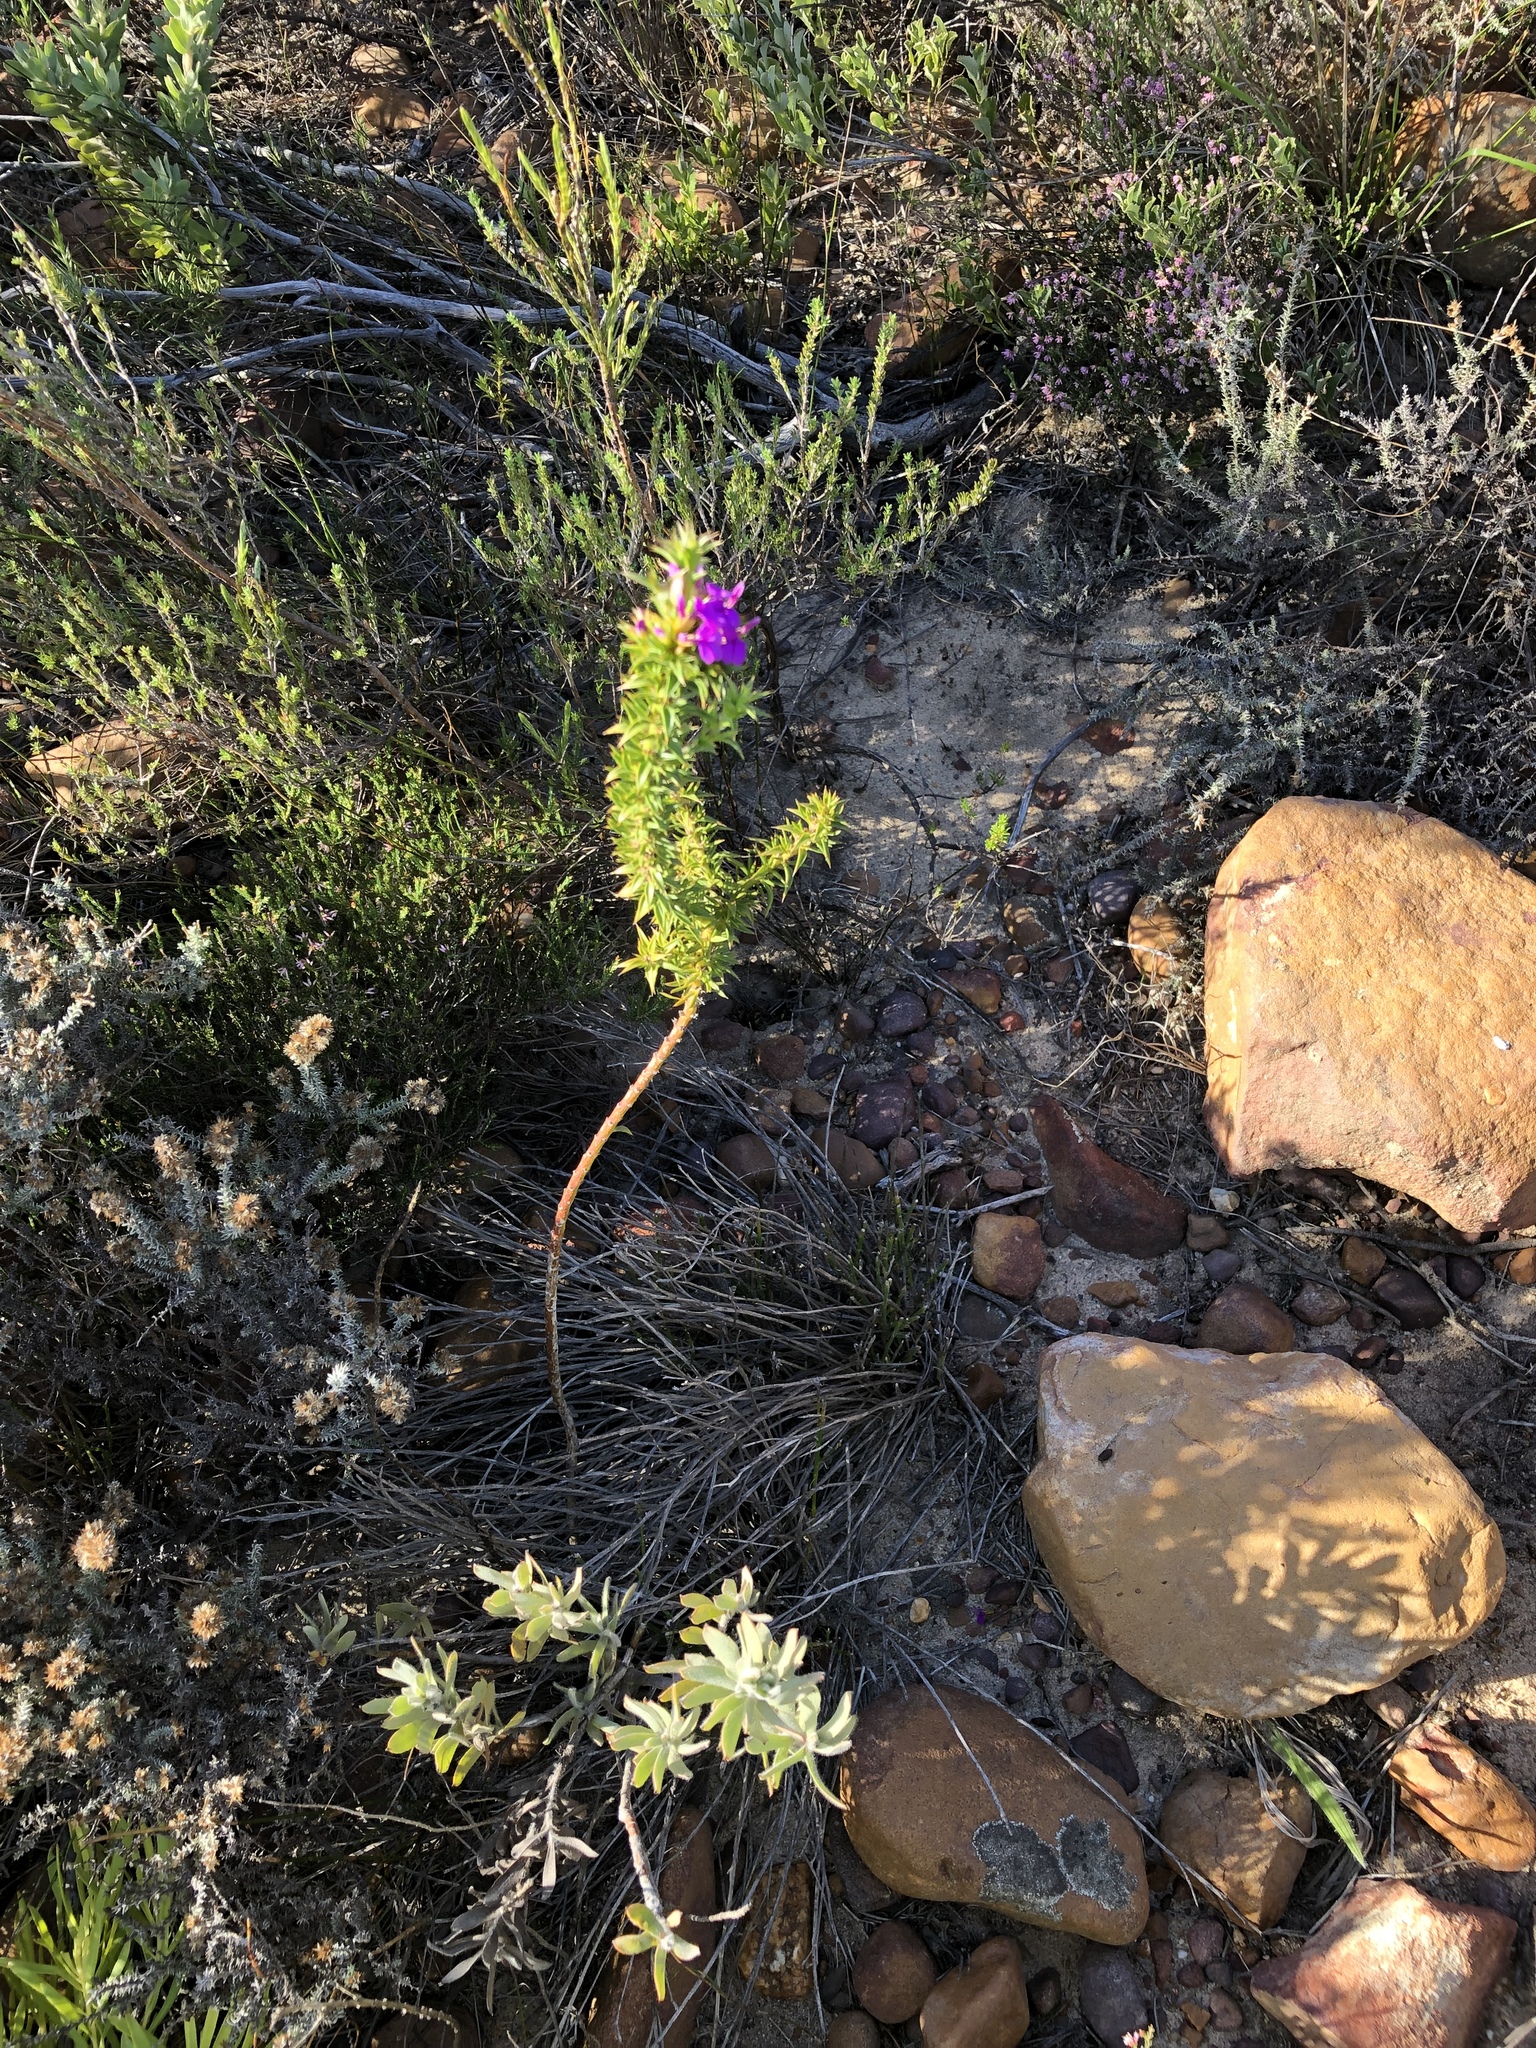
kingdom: Plantae
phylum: Tracheophyta
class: Magnoliopsida
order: Fabales
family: Polygalaceae
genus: Muraltia
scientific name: Muraltia heisteria
